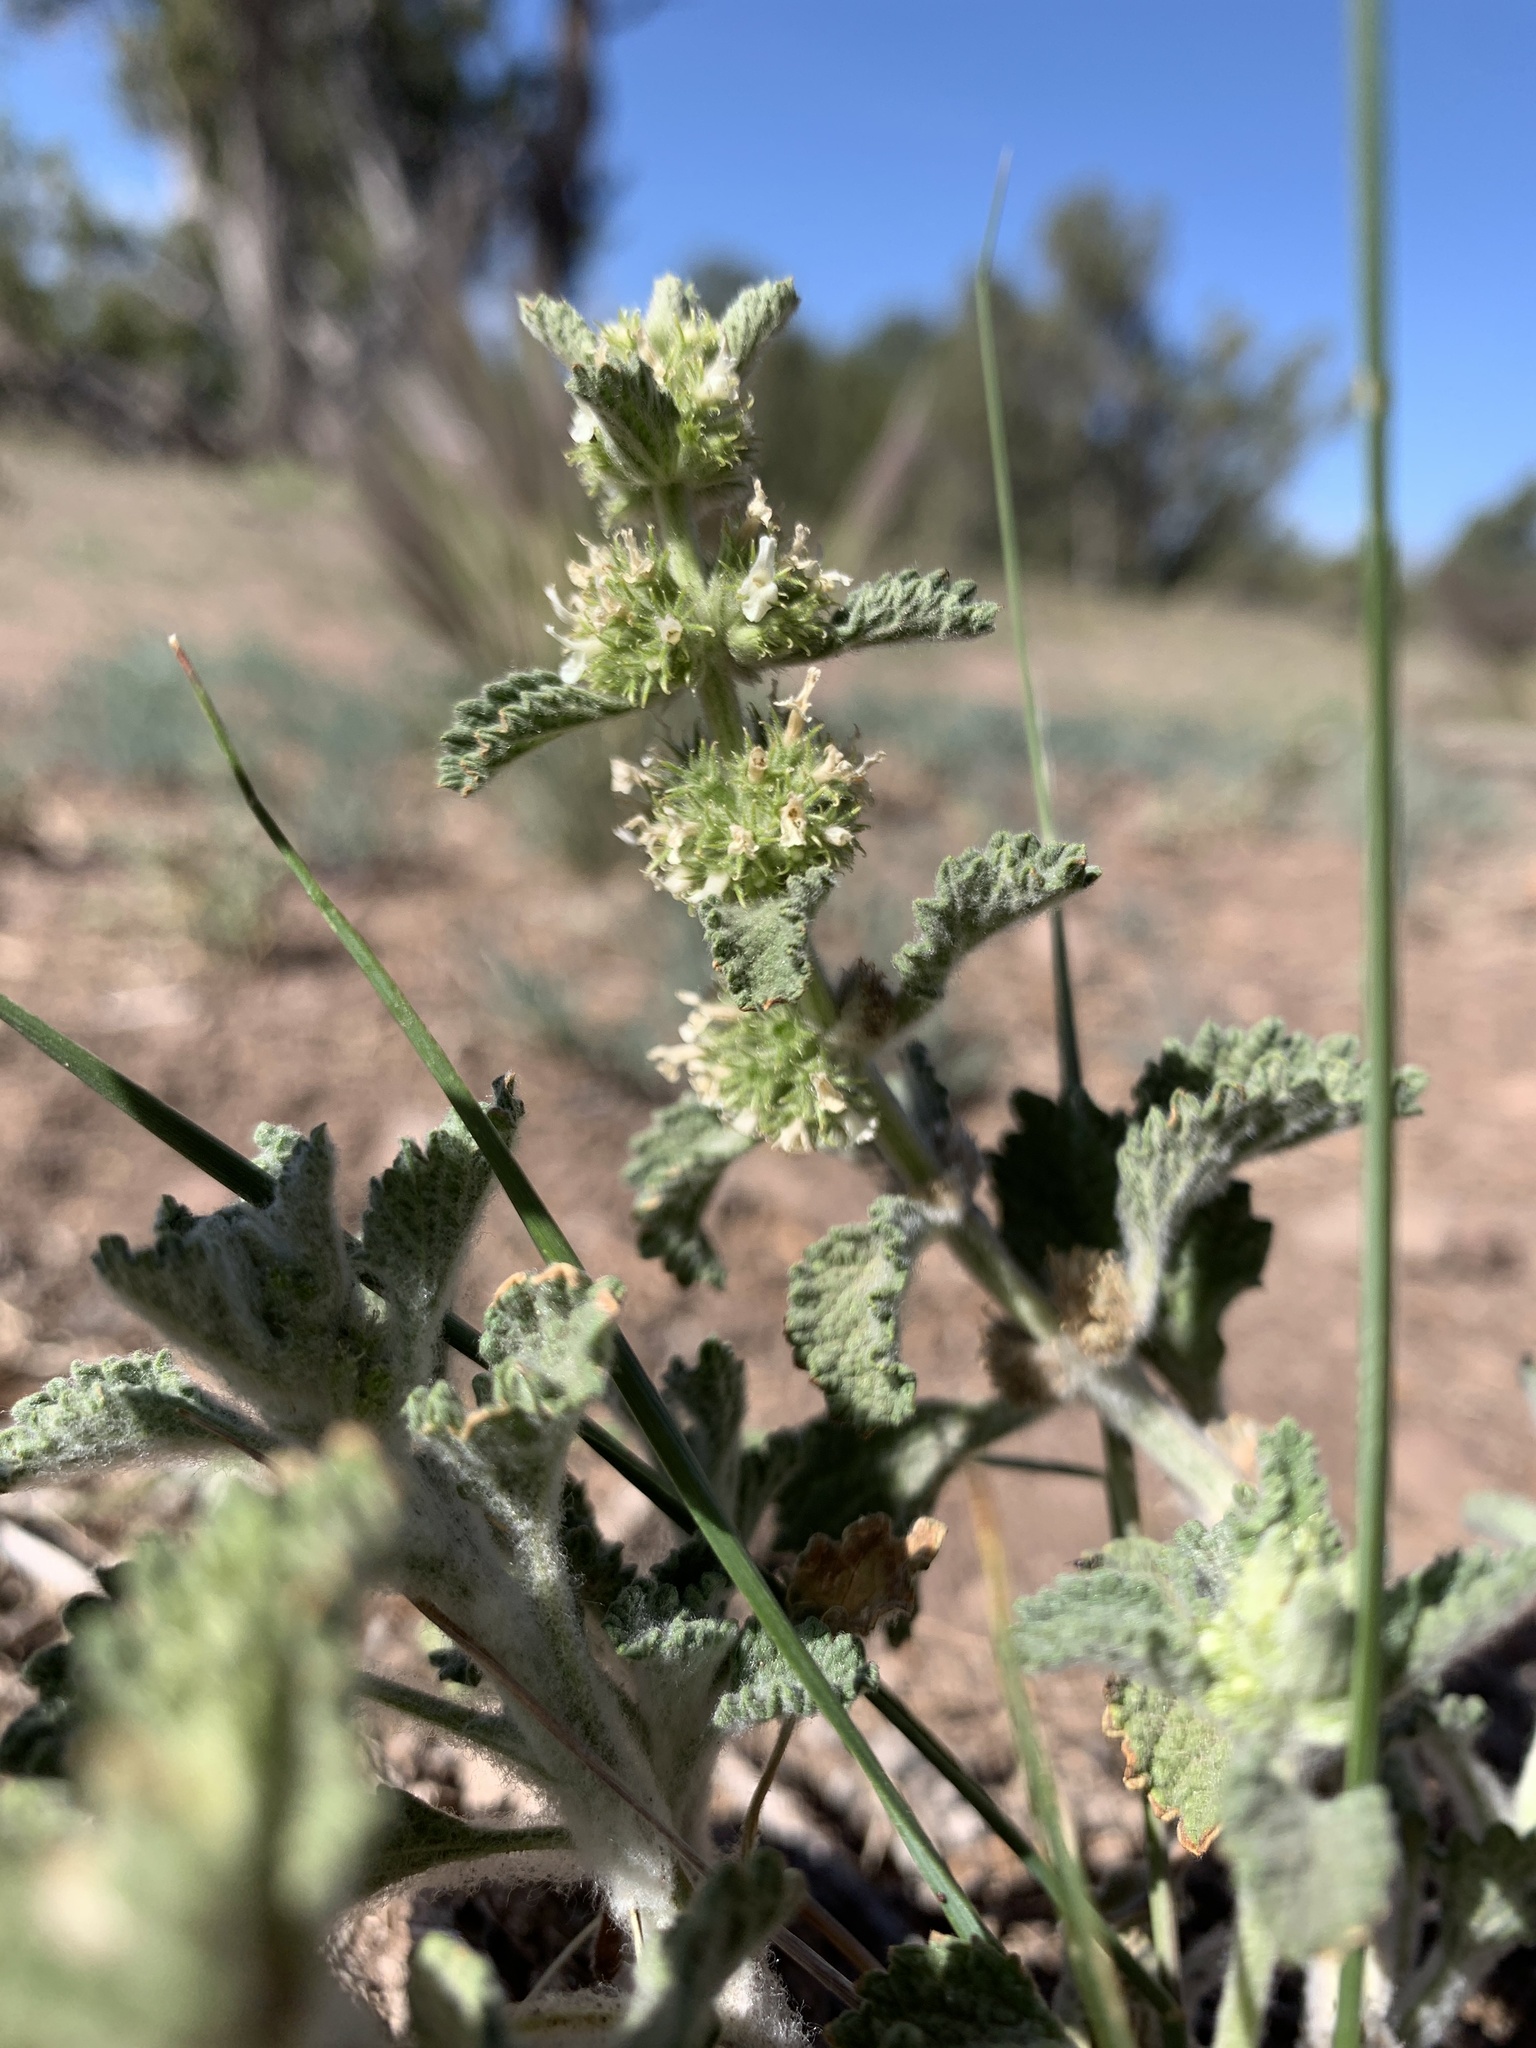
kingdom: Plantae
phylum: Tracheophyta
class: Magnoliopsida
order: Lamiales
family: Lamiaceae
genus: Marrubium
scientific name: Marrubium vulgare
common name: Horehound
